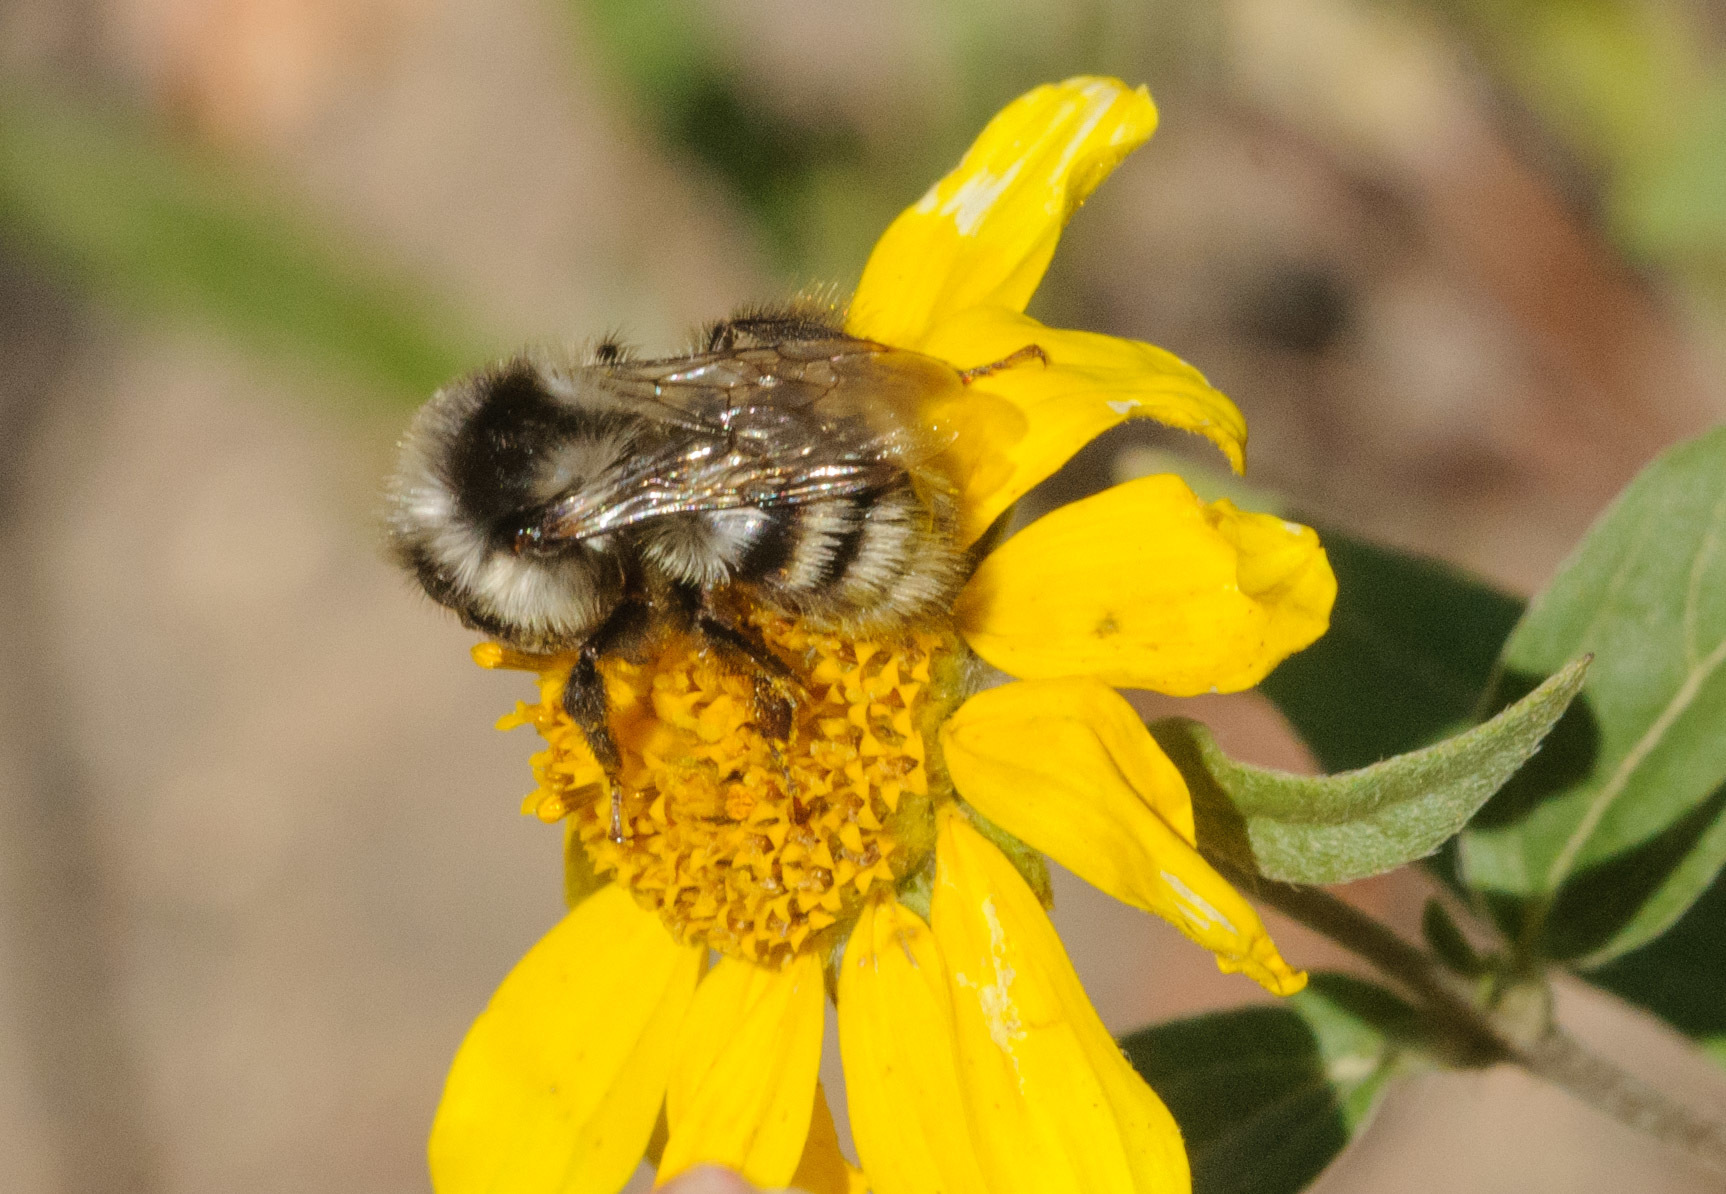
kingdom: Animalia
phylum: Arthropoda
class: Insecta
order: Hymenoptera
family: Apidae
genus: Bombus
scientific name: Bombus vancouverensis
